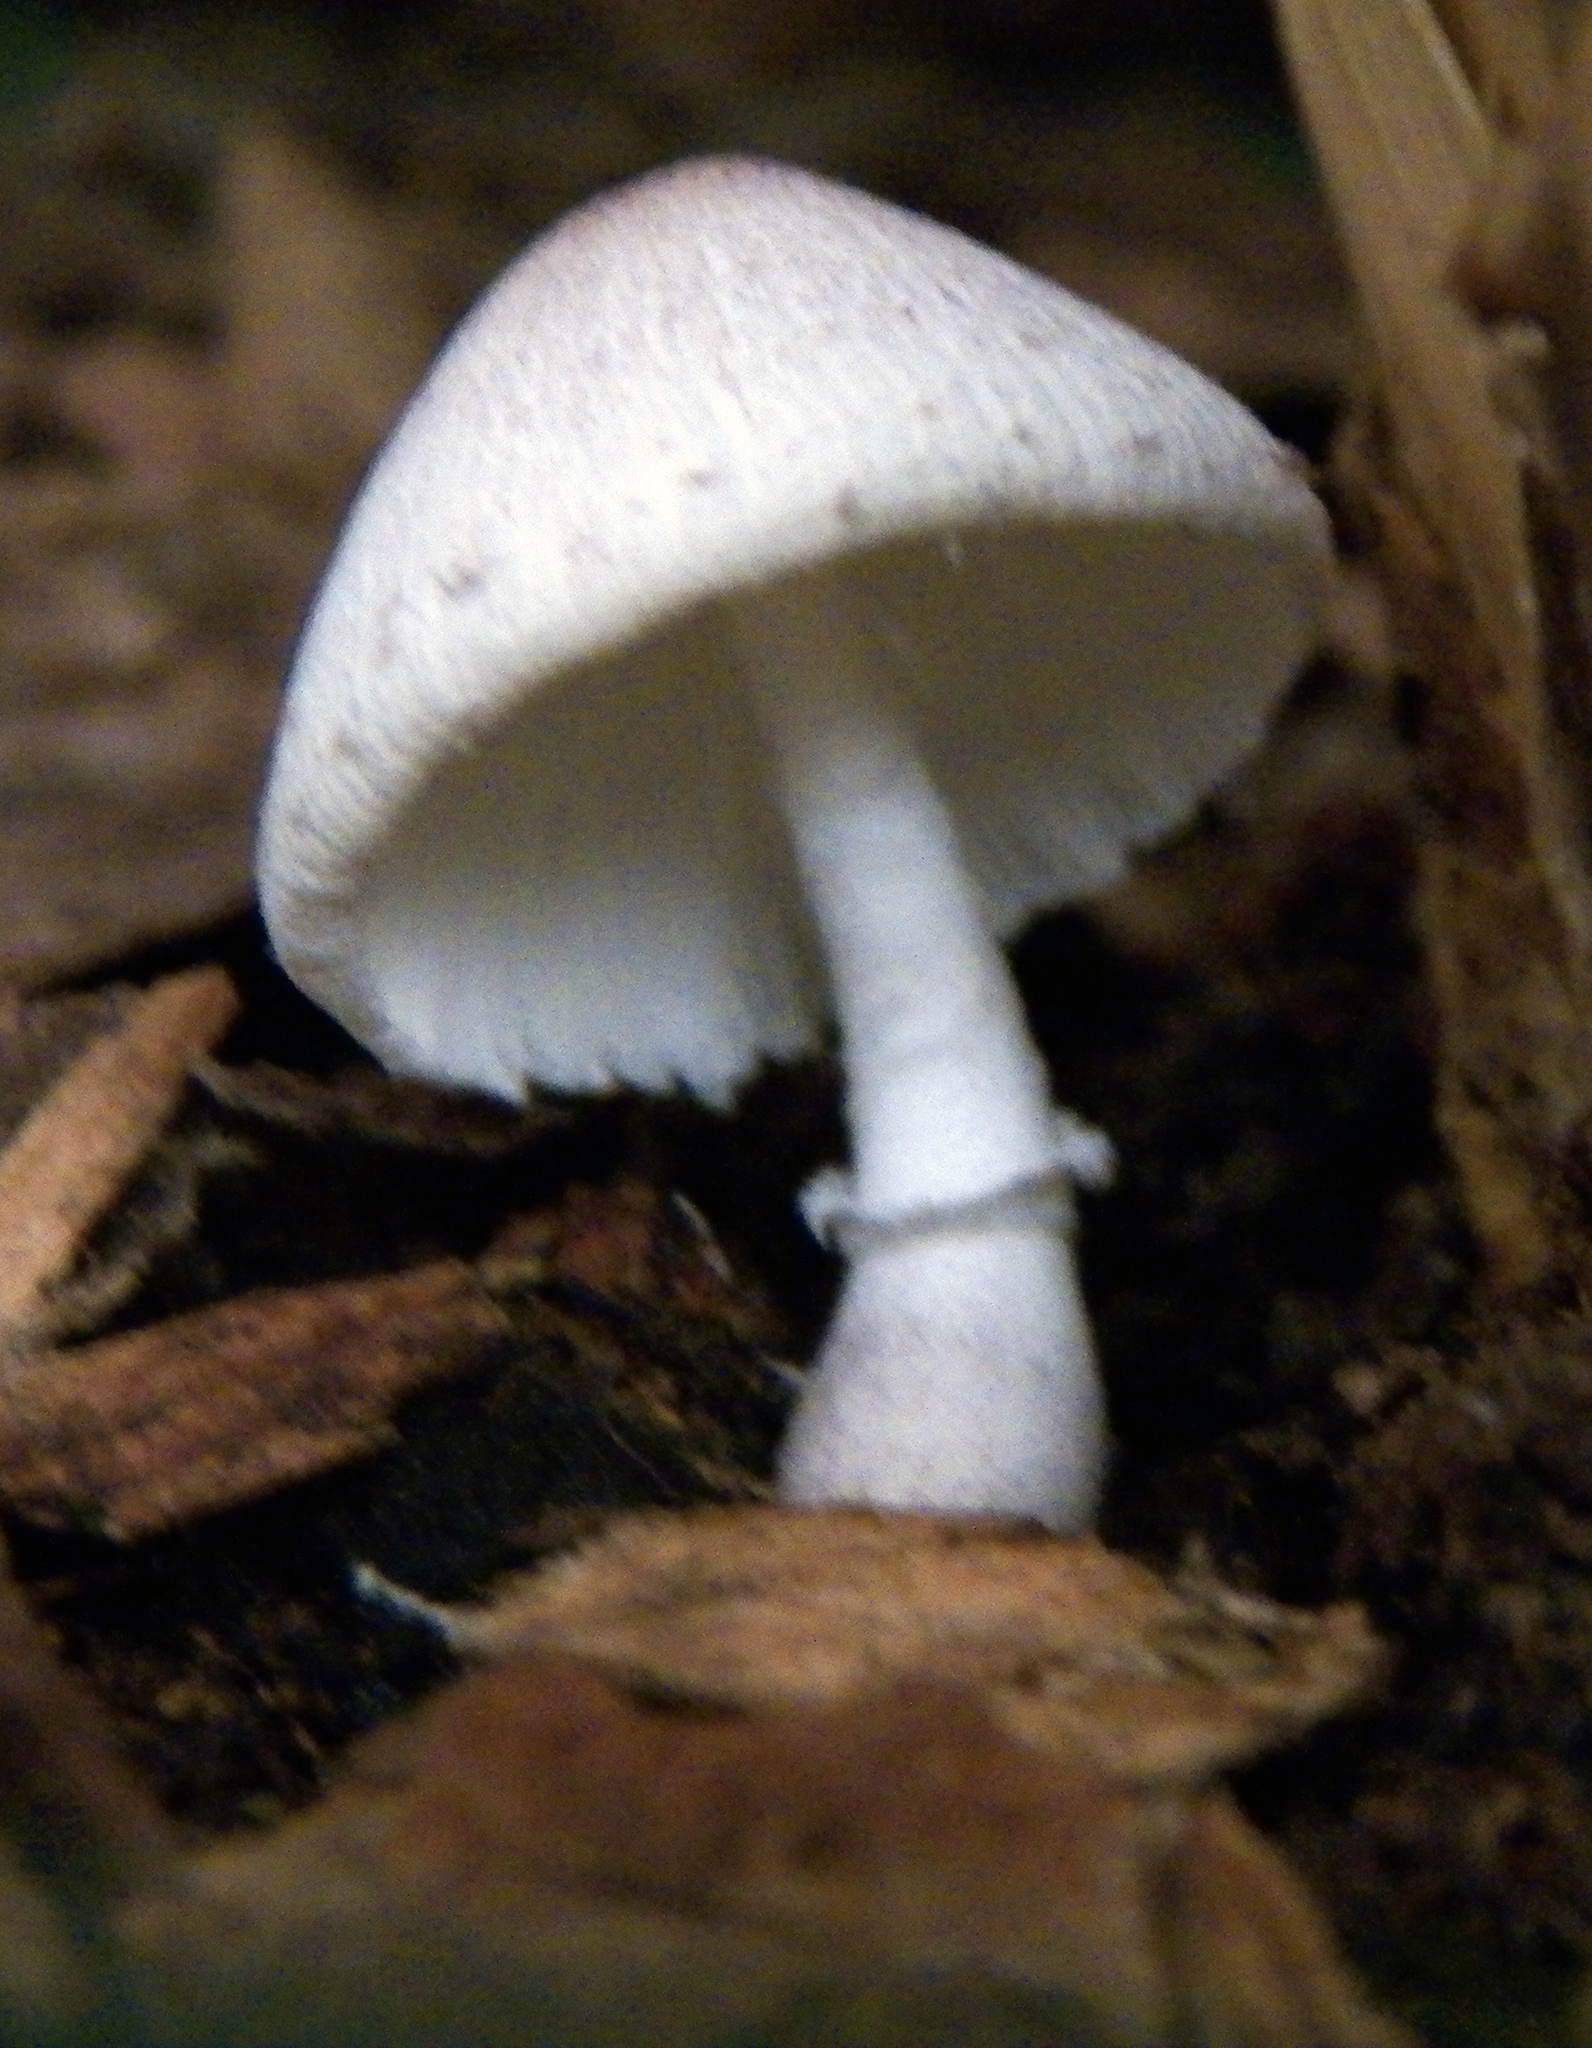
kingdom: Fungi
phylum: Basidiomycota
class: Agaricomycetes
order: Agaricales
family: Agaricaceae
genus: Leucocoprinus
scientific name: Leucocoprinus ianthinus
